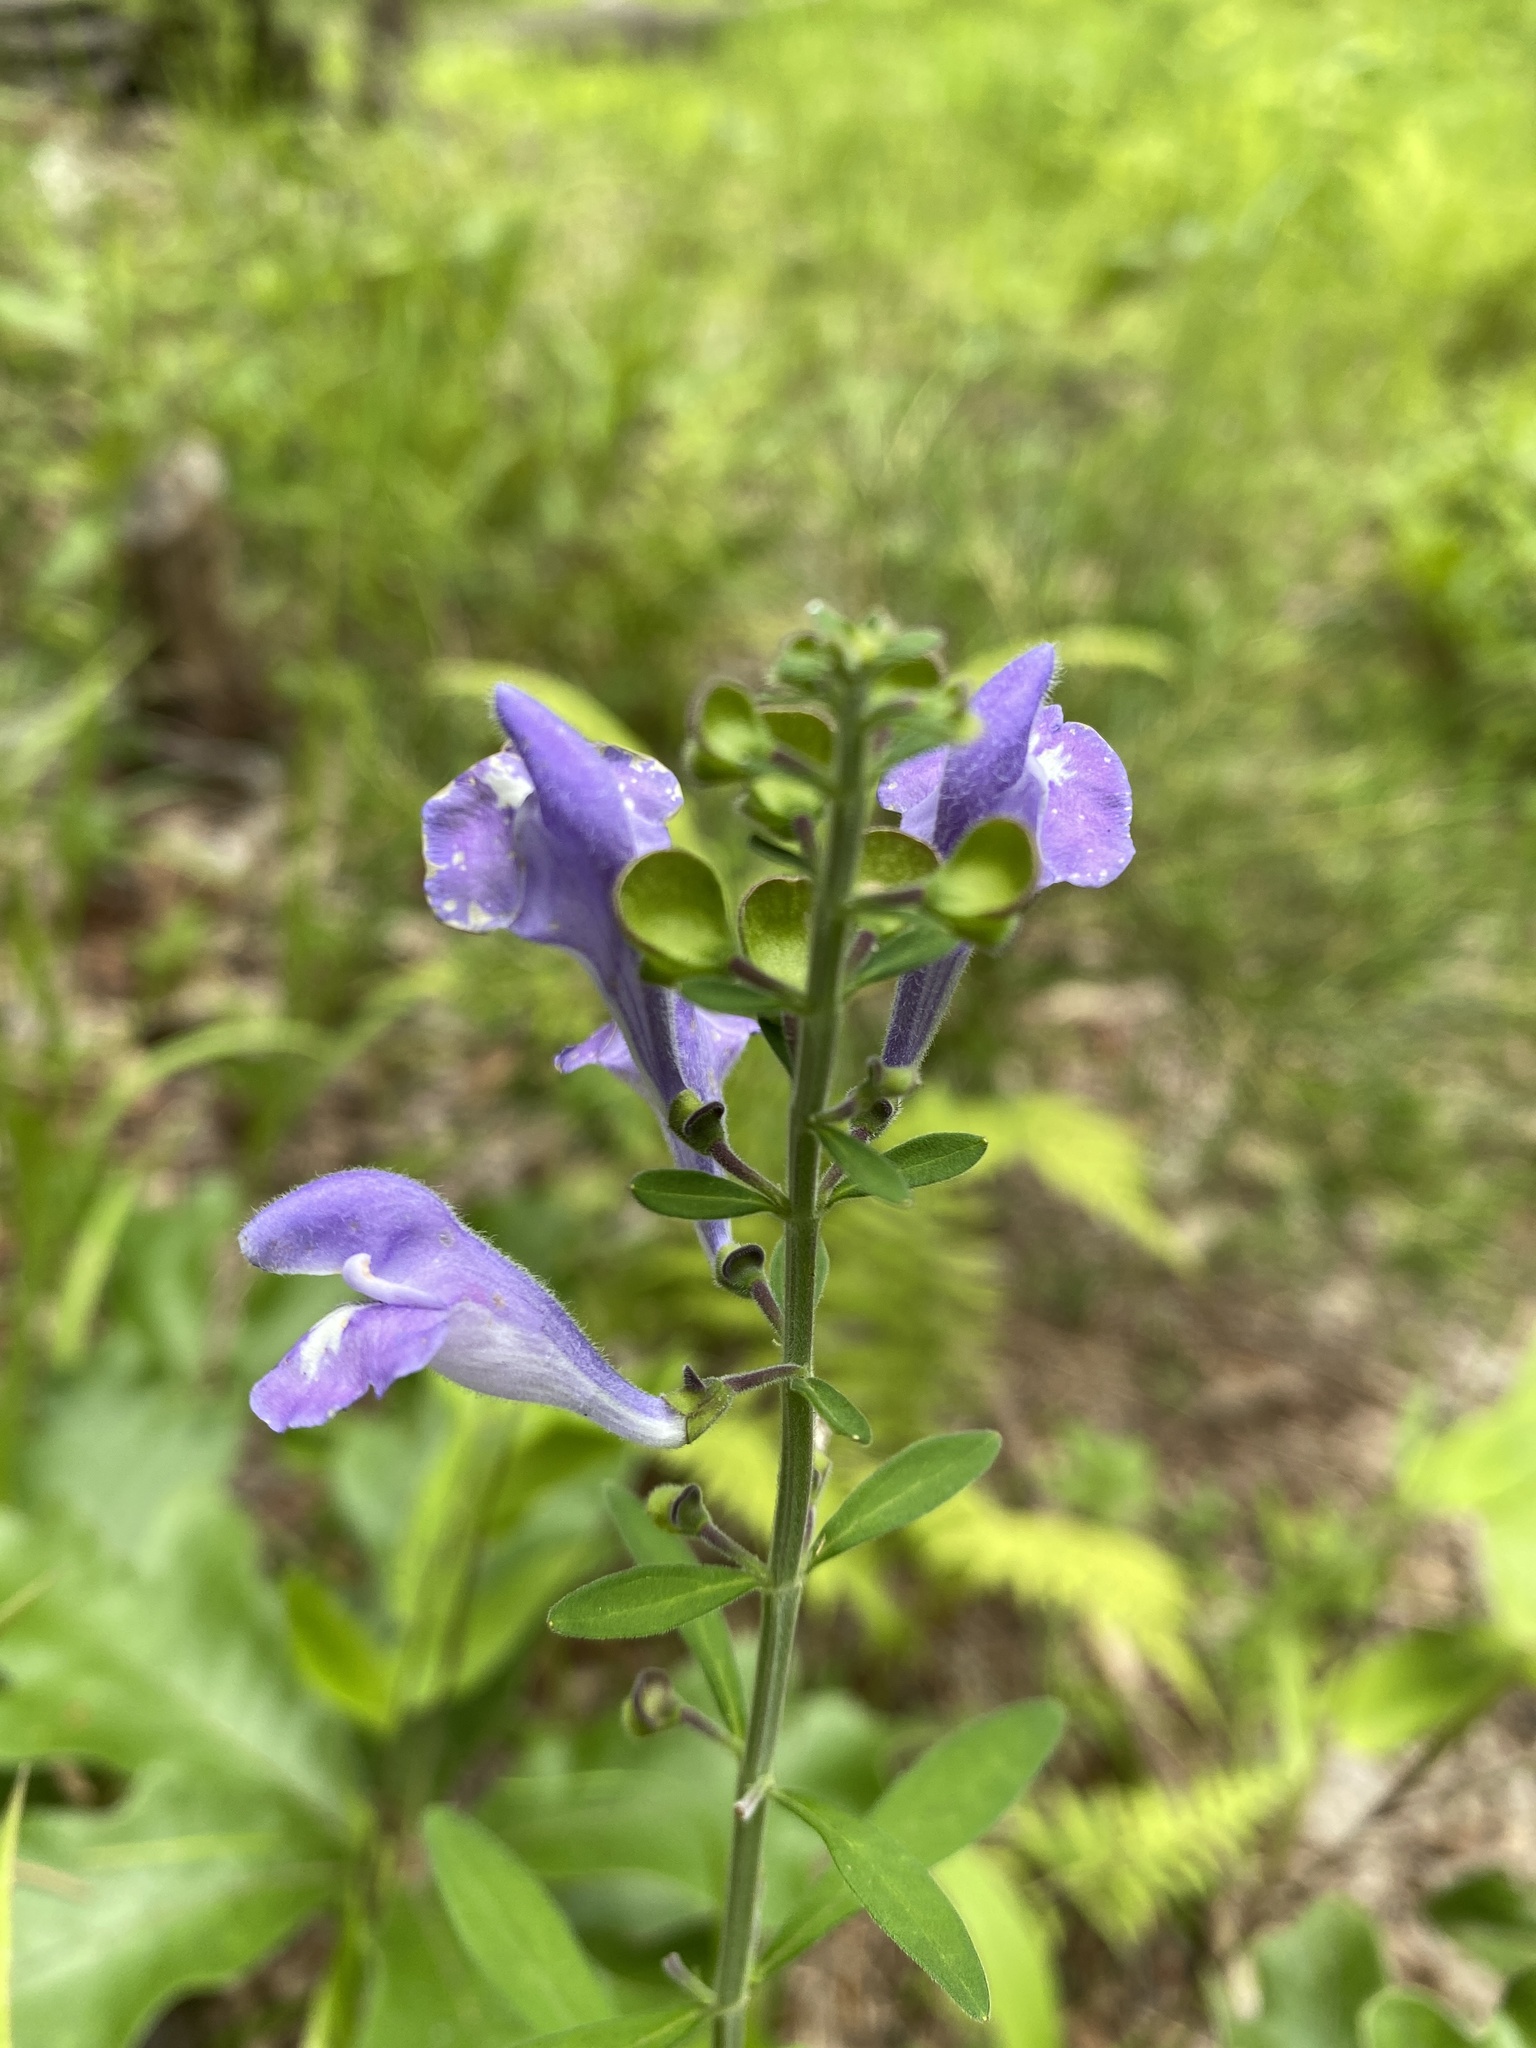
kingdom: Plantae
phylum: Tracheophyta
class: Magnoliopsida
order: Lamiales
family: Lamiaceae
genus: Scutellaria
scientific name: Scutellaria integrifolia
